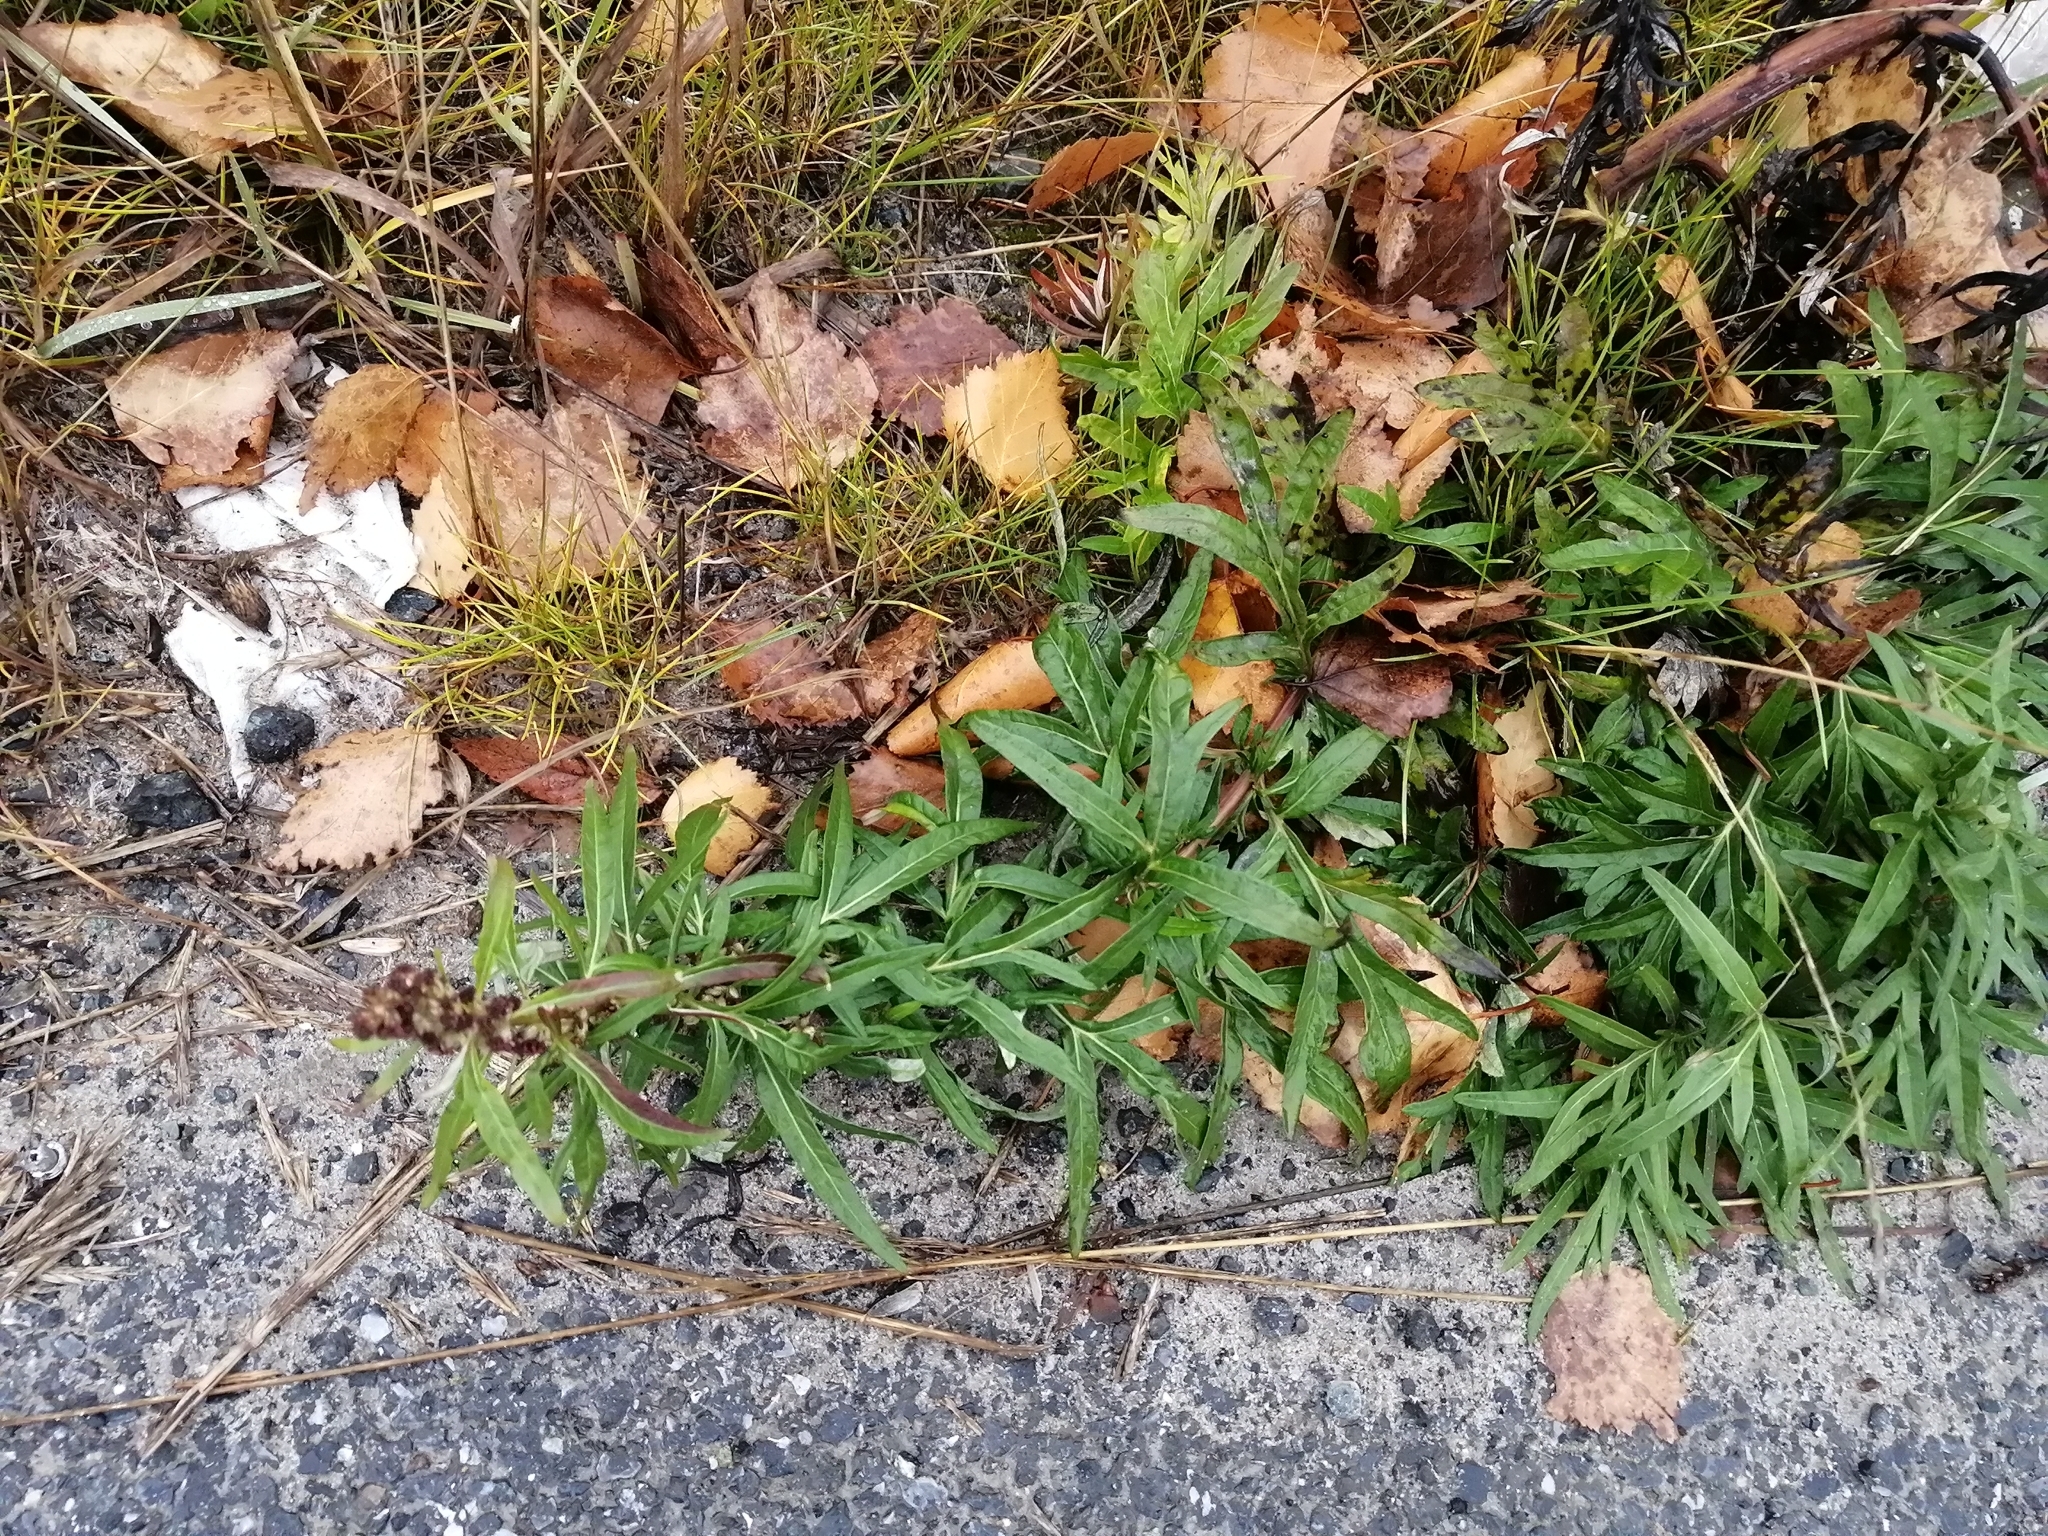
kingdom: Plantae
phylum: Tracheophyta
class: Magnoliopsida
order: Asterales
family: Asteraceae
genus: Artemisia
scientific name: Artemisia vulgaris
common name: Mugwort
